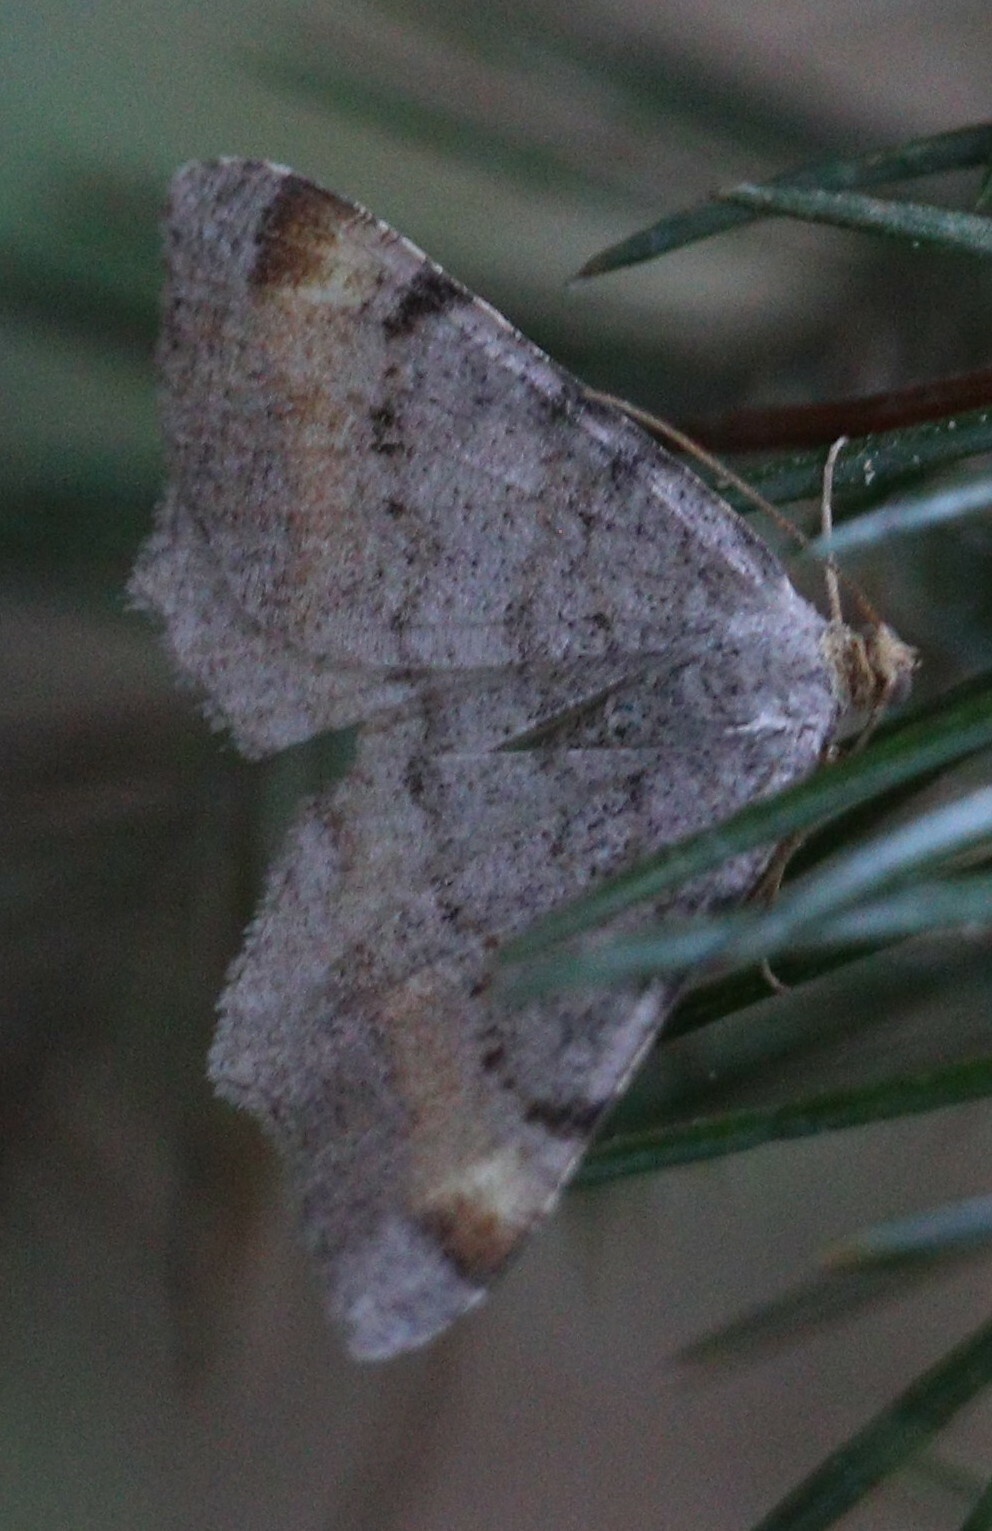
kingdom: Animalia
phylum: Arthropoda
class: Insecta
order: Lepidoptera
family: Geometridae
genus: Macaria
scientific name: Macaria liturata
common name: Tawny-barred angle
